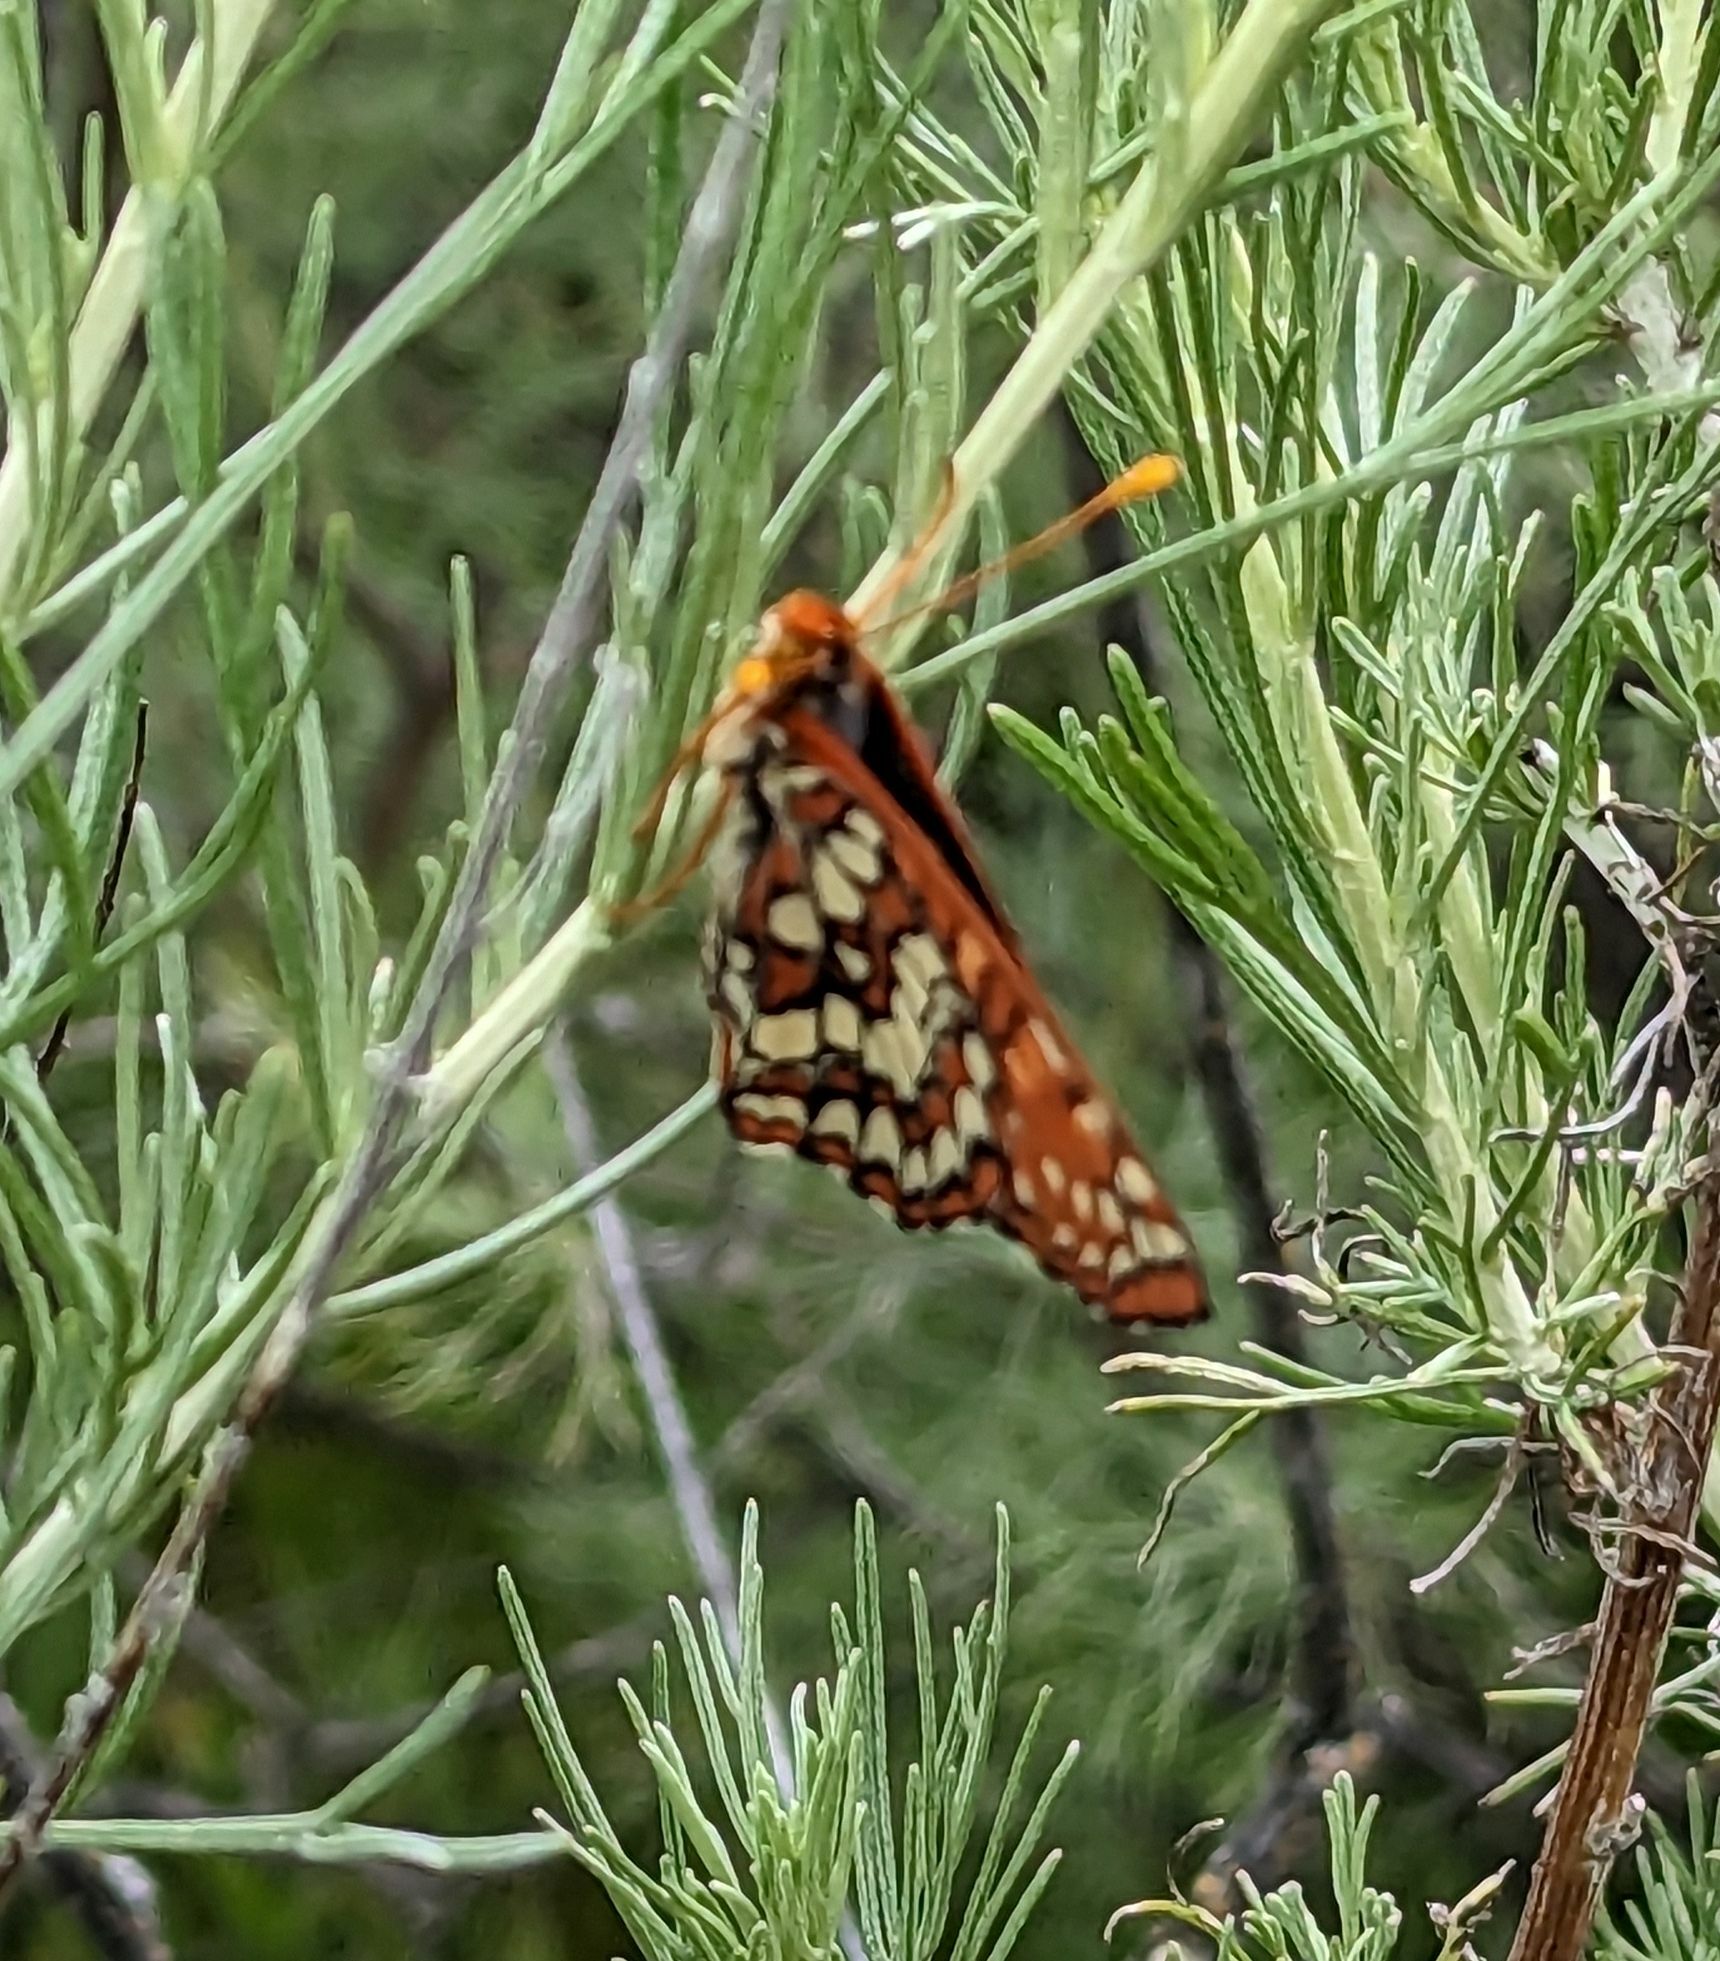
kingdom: Animalia
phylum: Arthropoda
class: Insecta
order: Lepidoptera
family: Nymphalidae
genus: Occidryas
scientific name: Occidryas chalcedona
